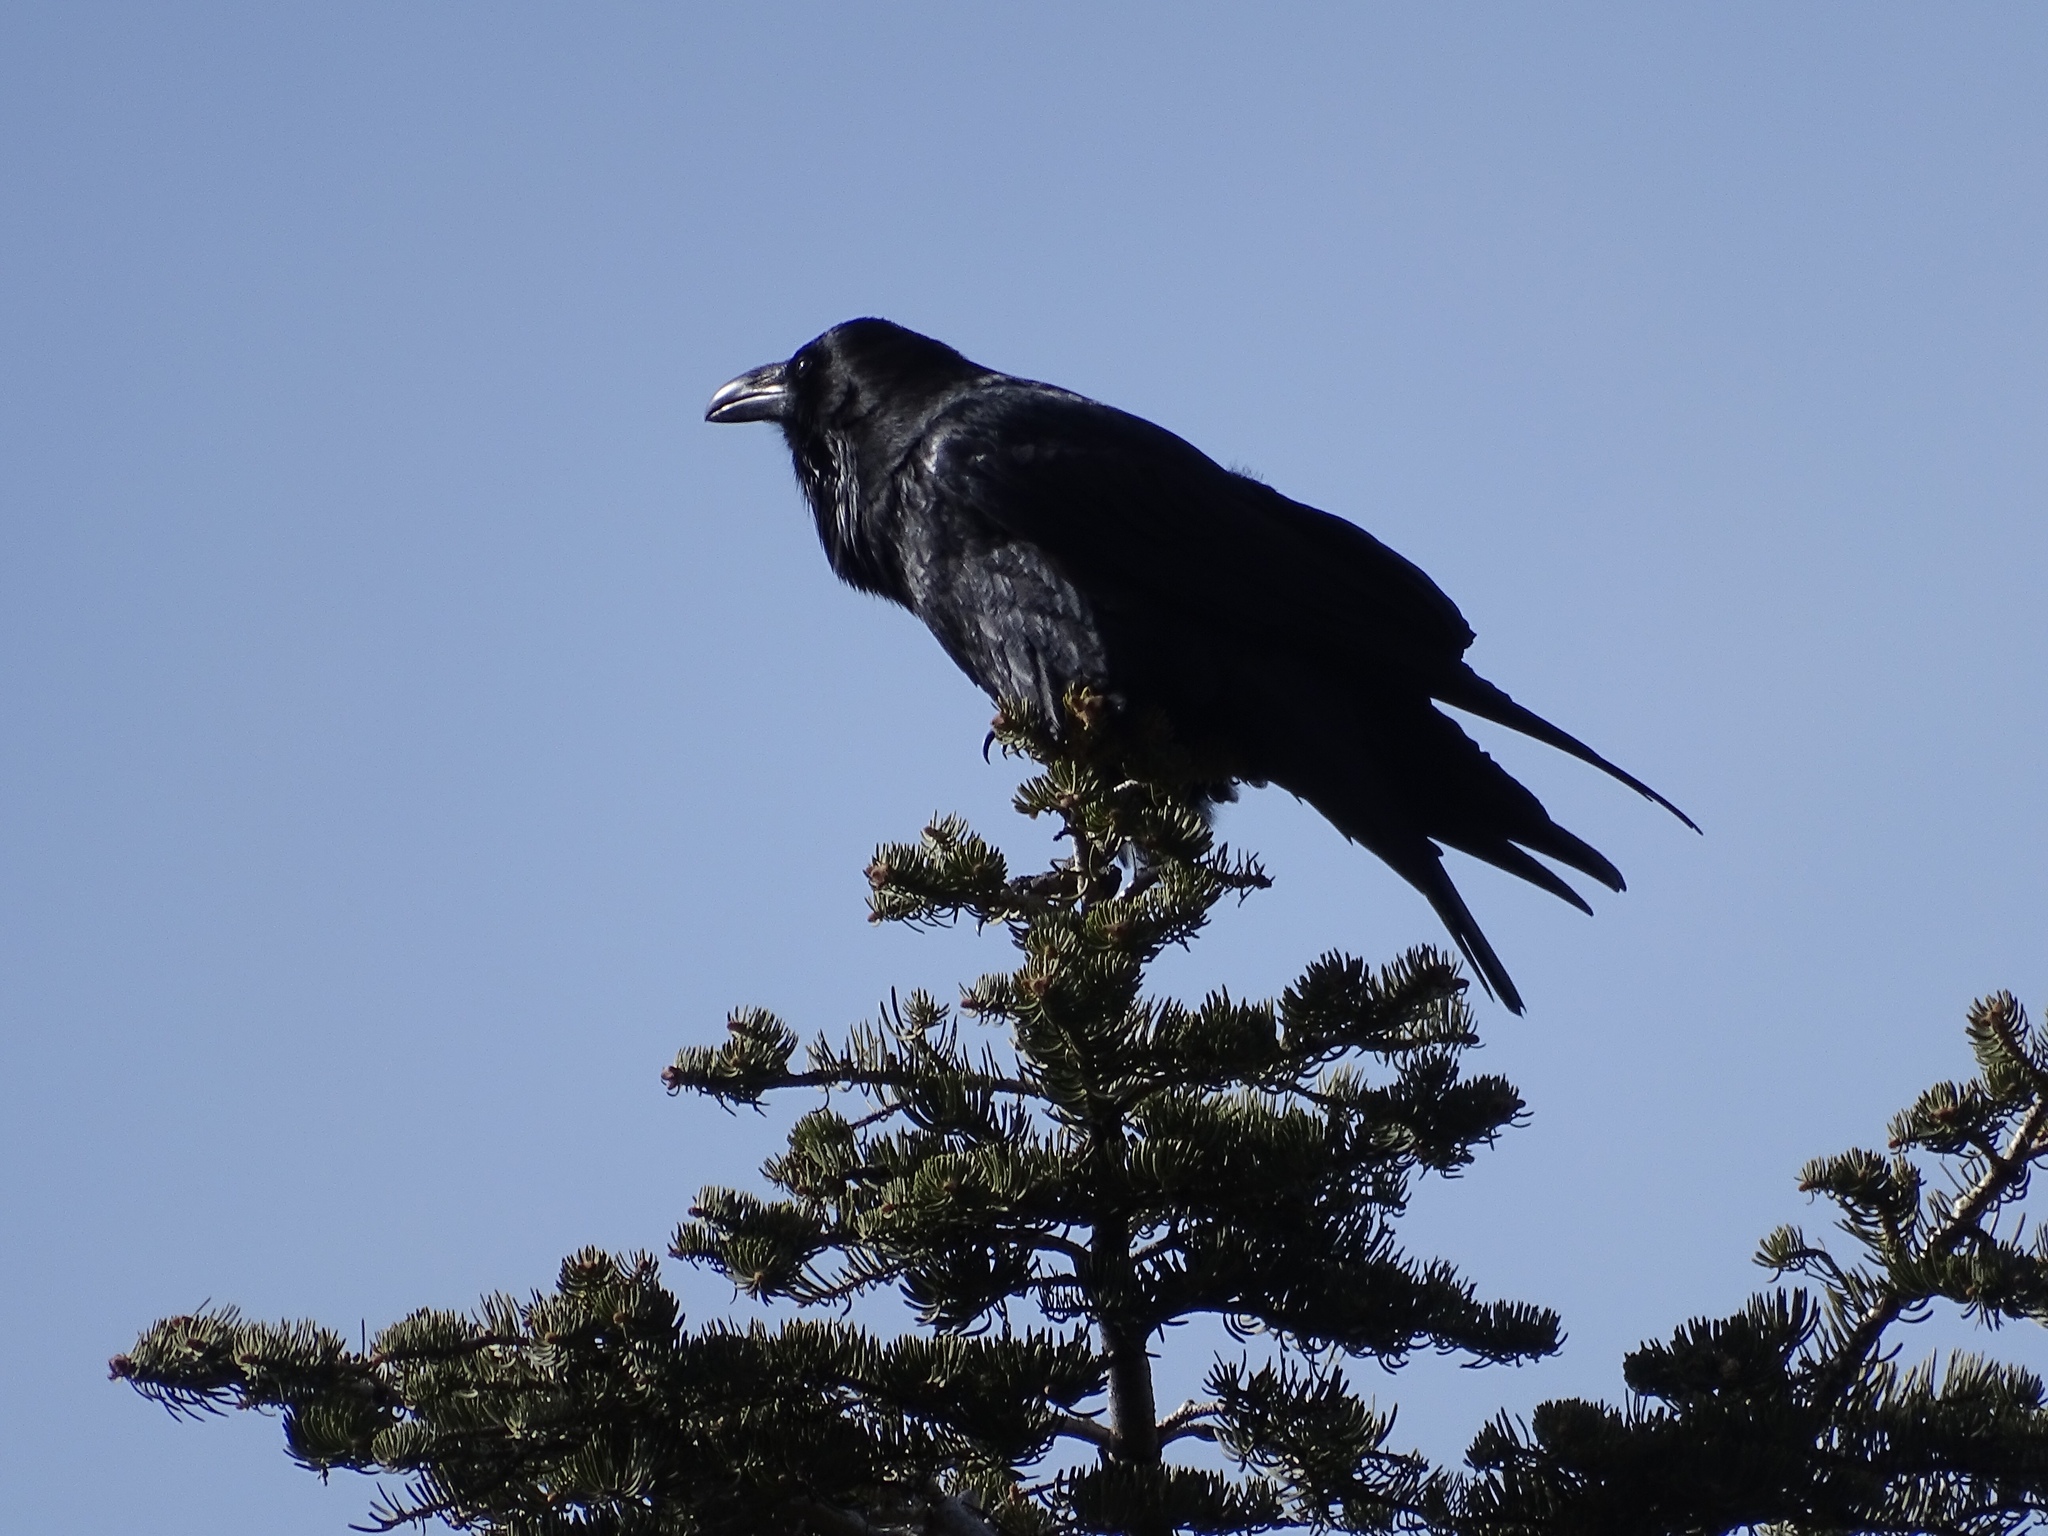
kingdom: Animalia
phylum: Chordata
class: Aves
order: Passeriformes
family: Corvidae
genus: Corvus
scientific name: Corvus corax
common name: Common raven
